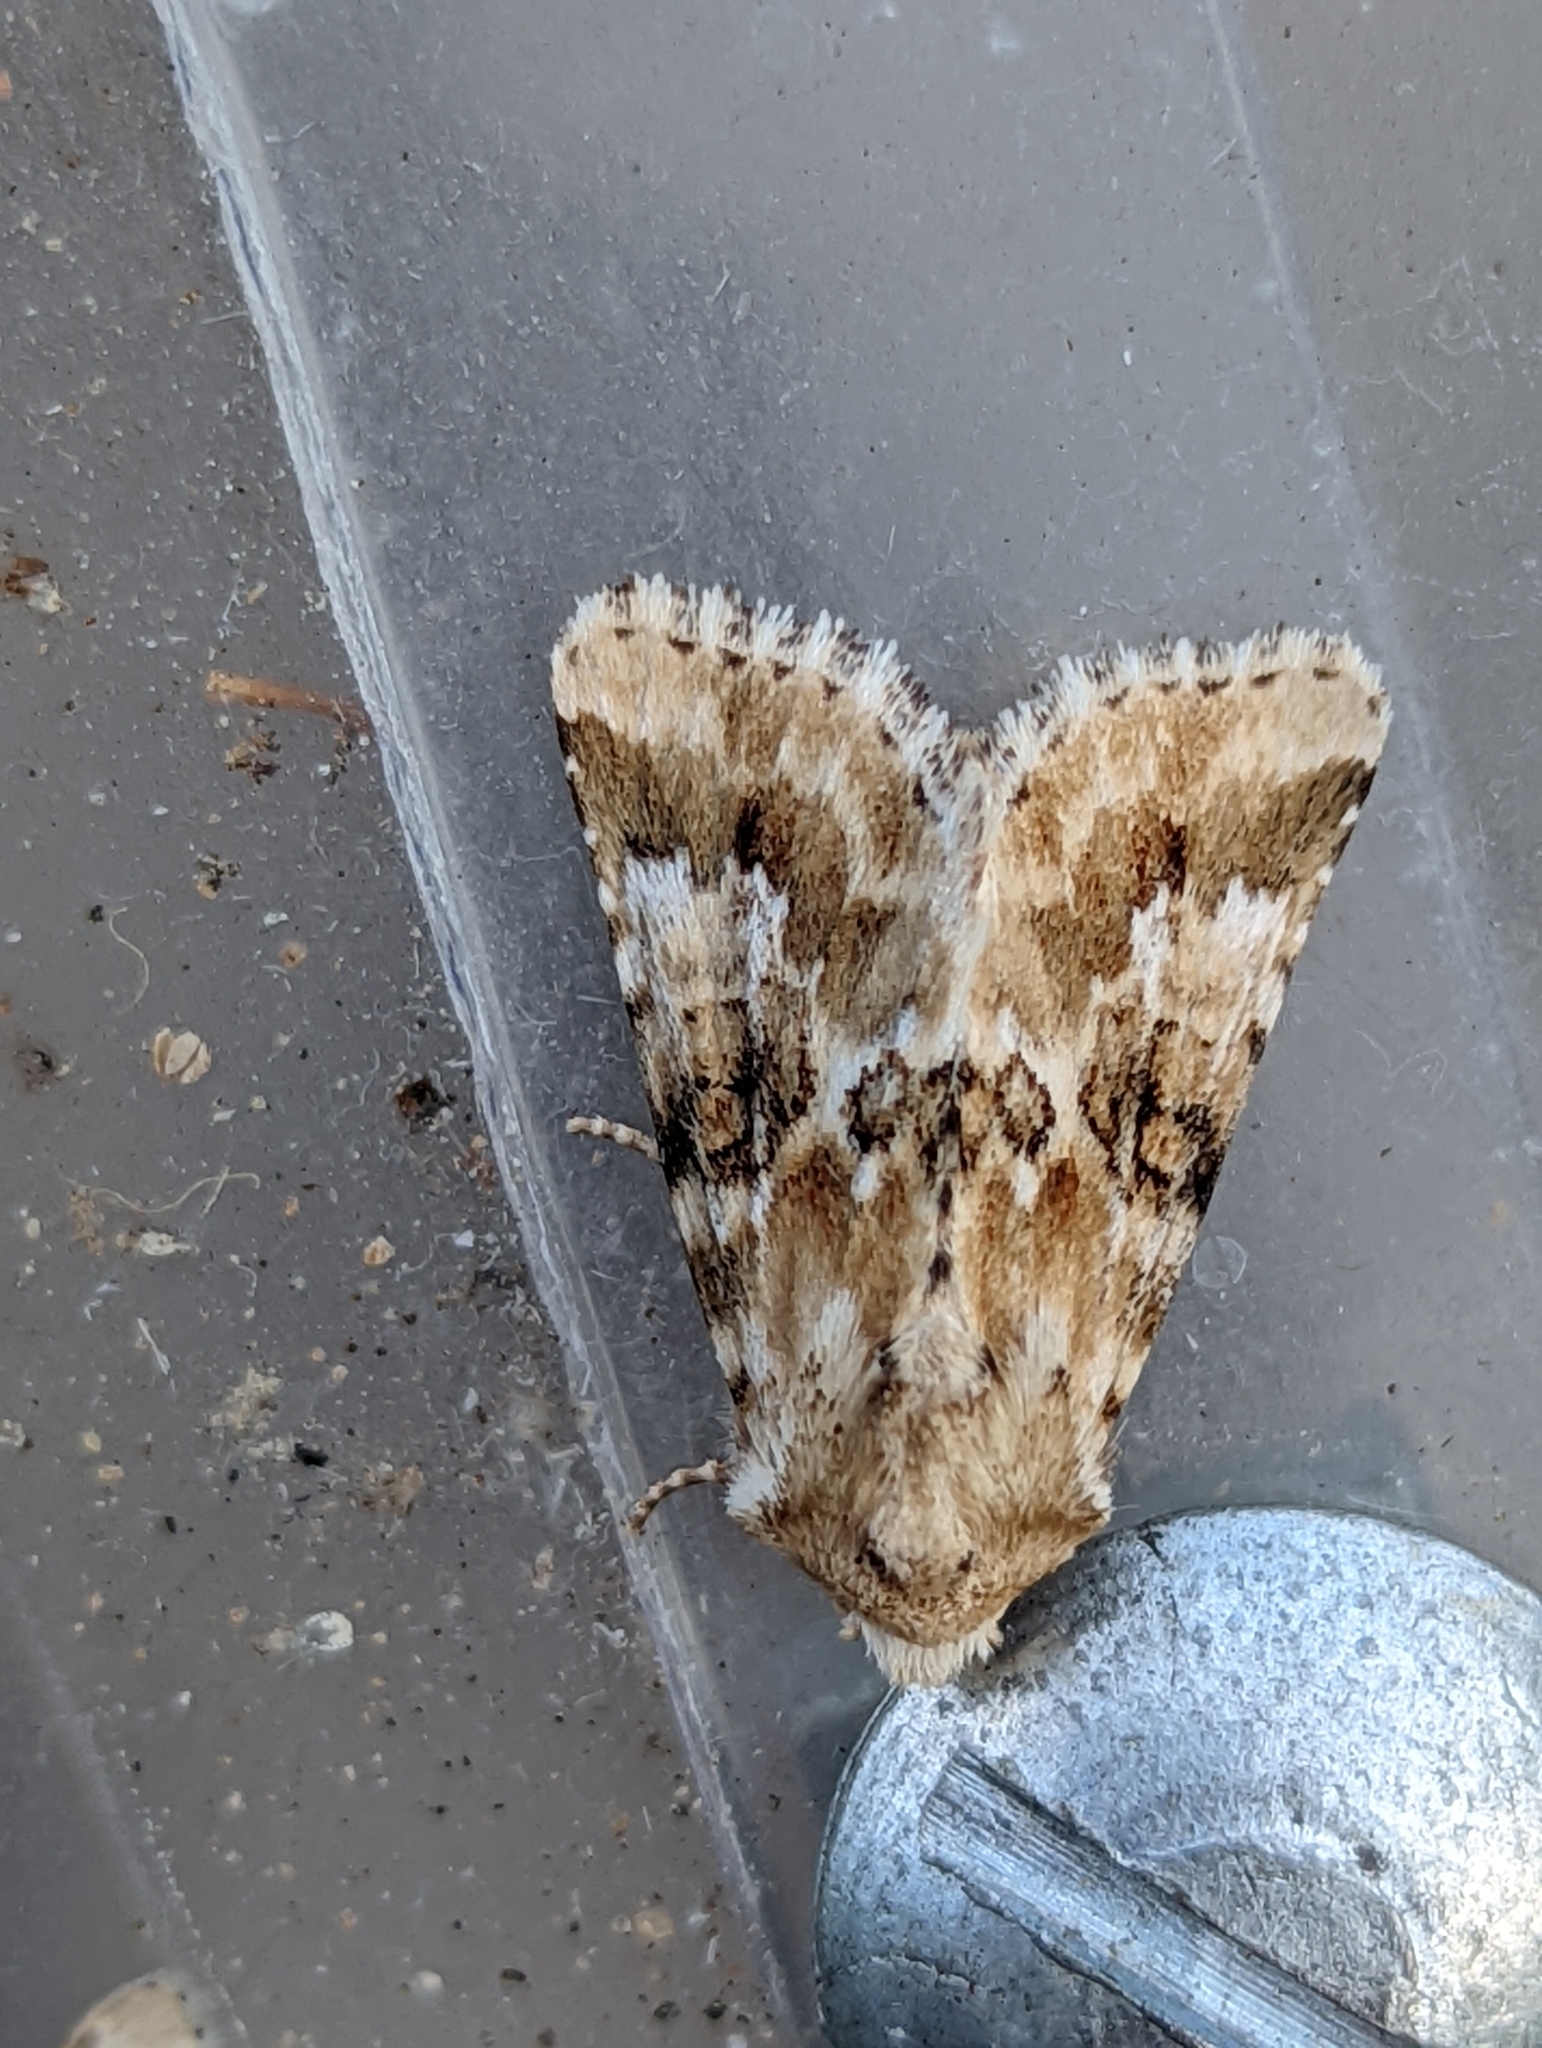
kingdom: Animalia
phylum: Arthropoda
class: Insecta
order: Lepidoptera
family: Noctuidae
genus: Eremobia
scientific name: Eremobia ochroleuca
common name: Dusky sallow
